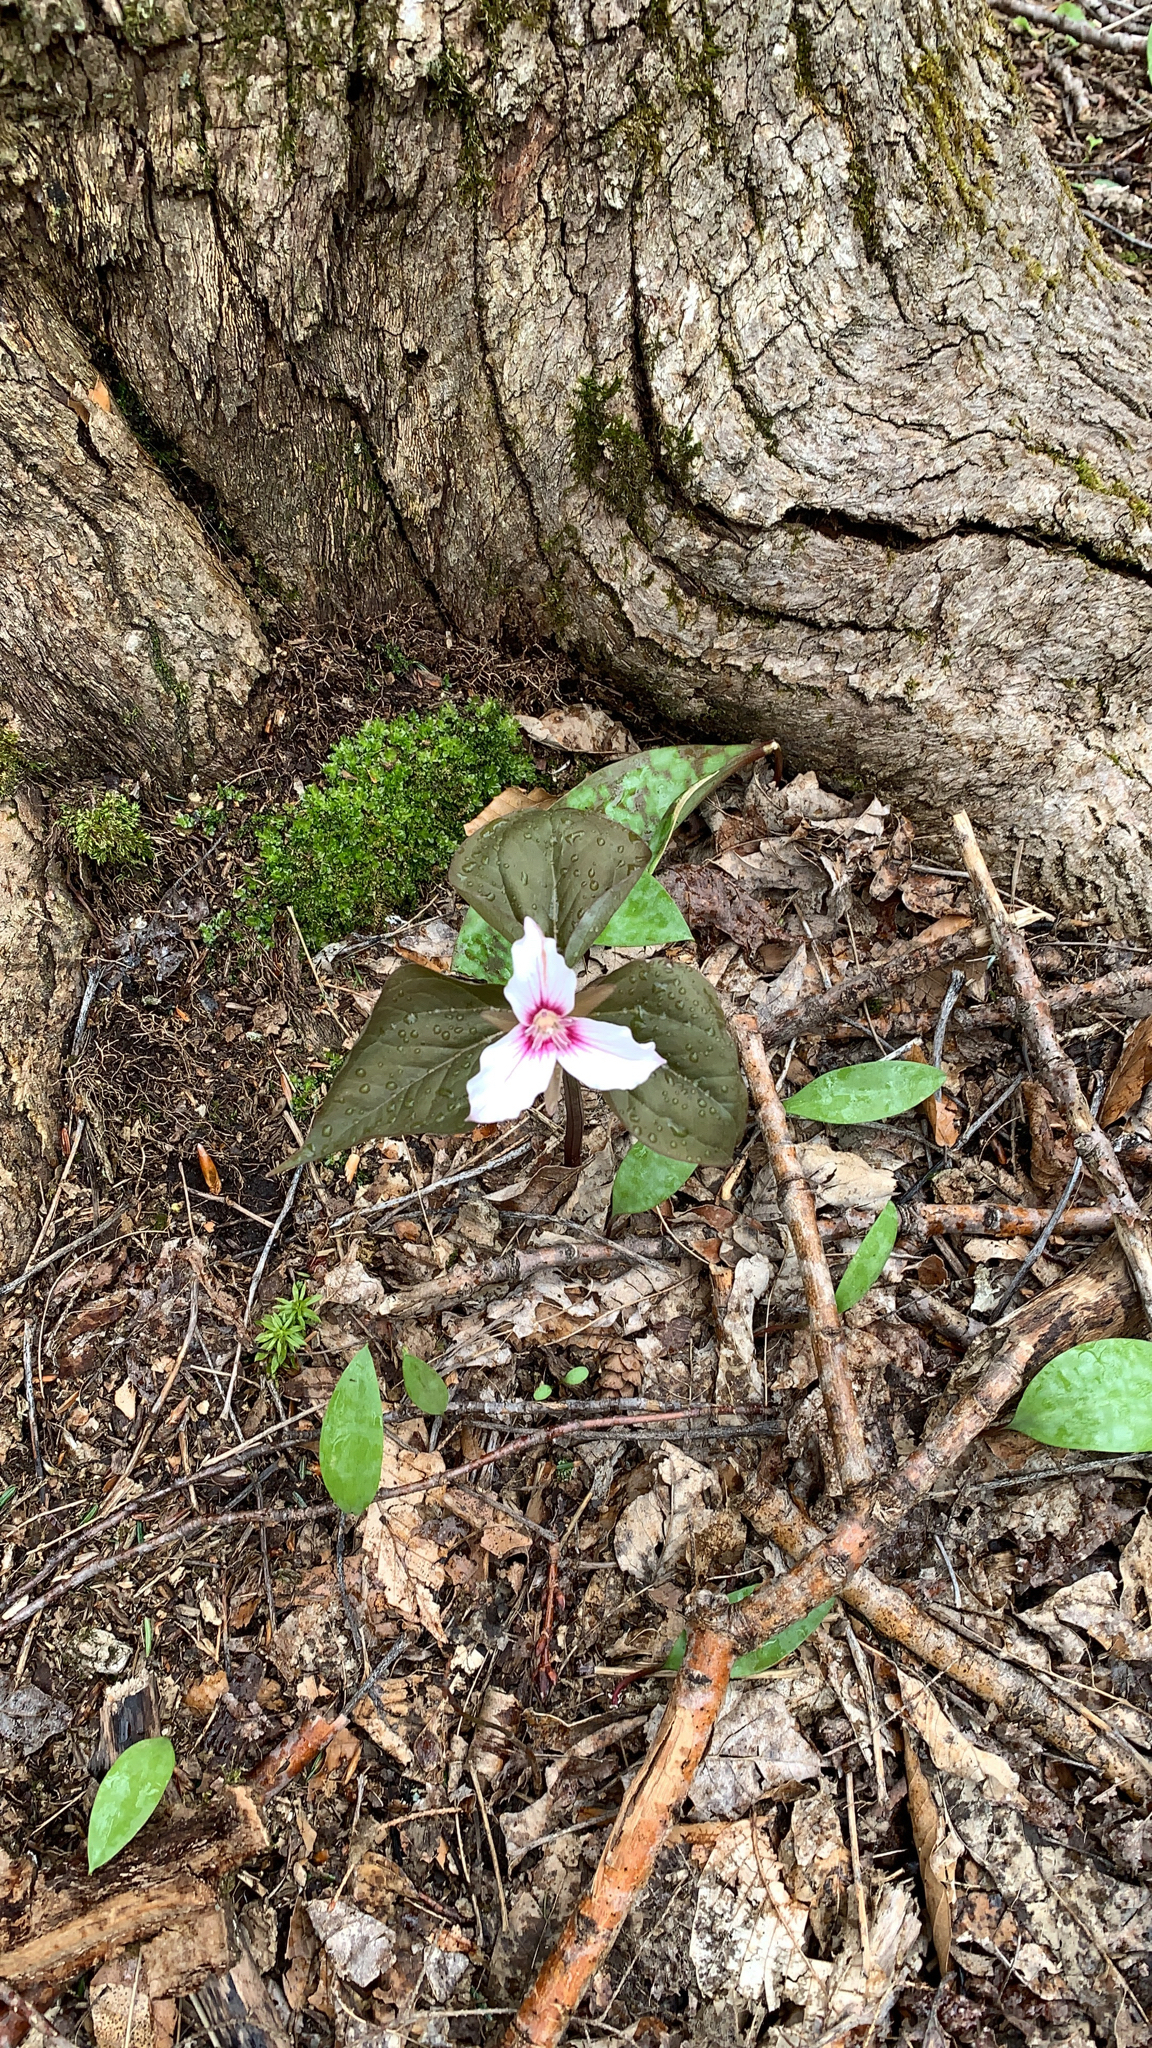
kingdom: Plantae
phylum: Tracheophyta
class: Liliopsida
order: Liliales
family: Melanthiaceae
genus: Trillium
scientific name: Trillium undulatum
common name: Paint trillium
